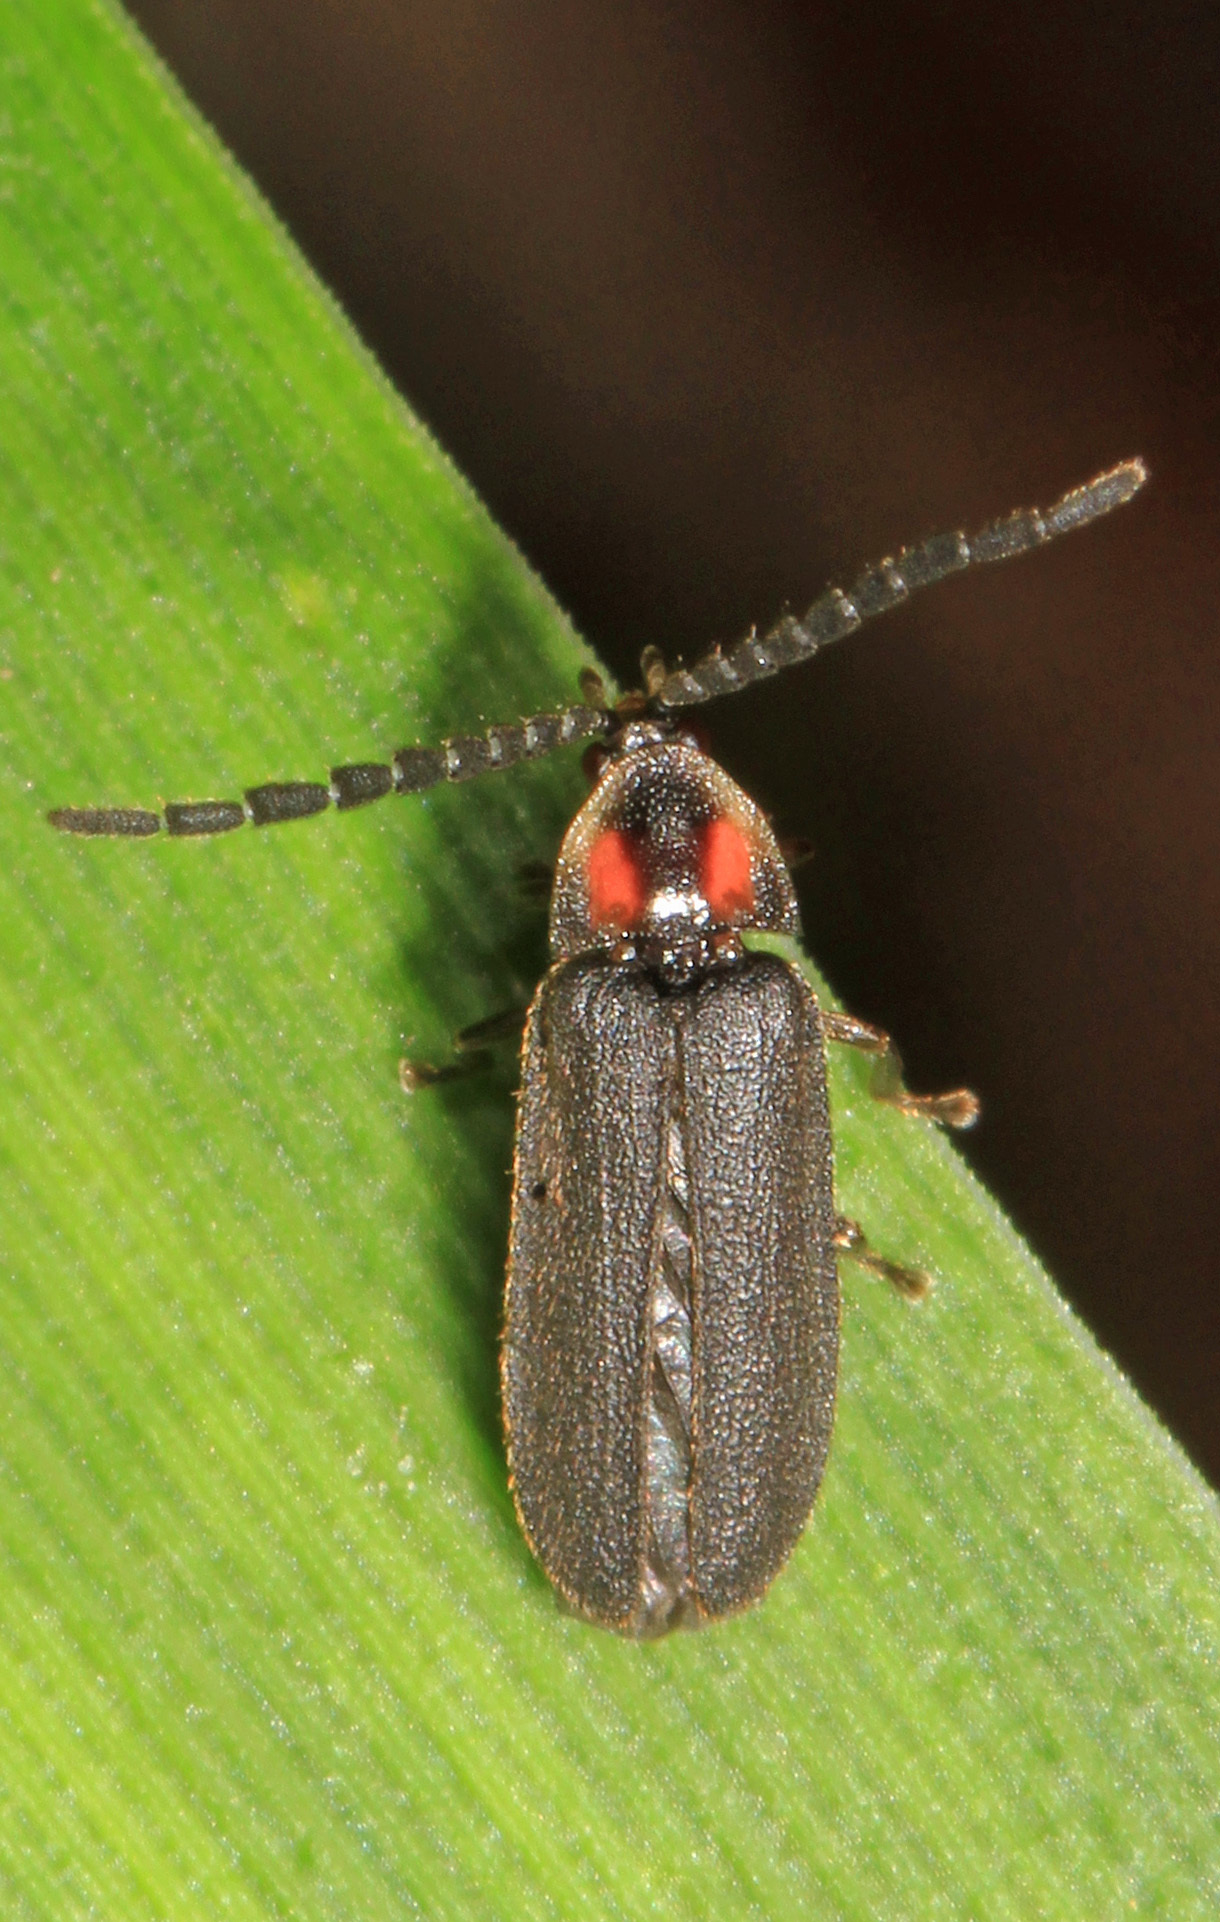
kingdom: Animalia
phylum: Arthropoda
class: Insecta
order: Coleoptera
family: Lampyridae
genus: Lucidota
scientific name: Lucidota punctata
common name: Dotted firefly
